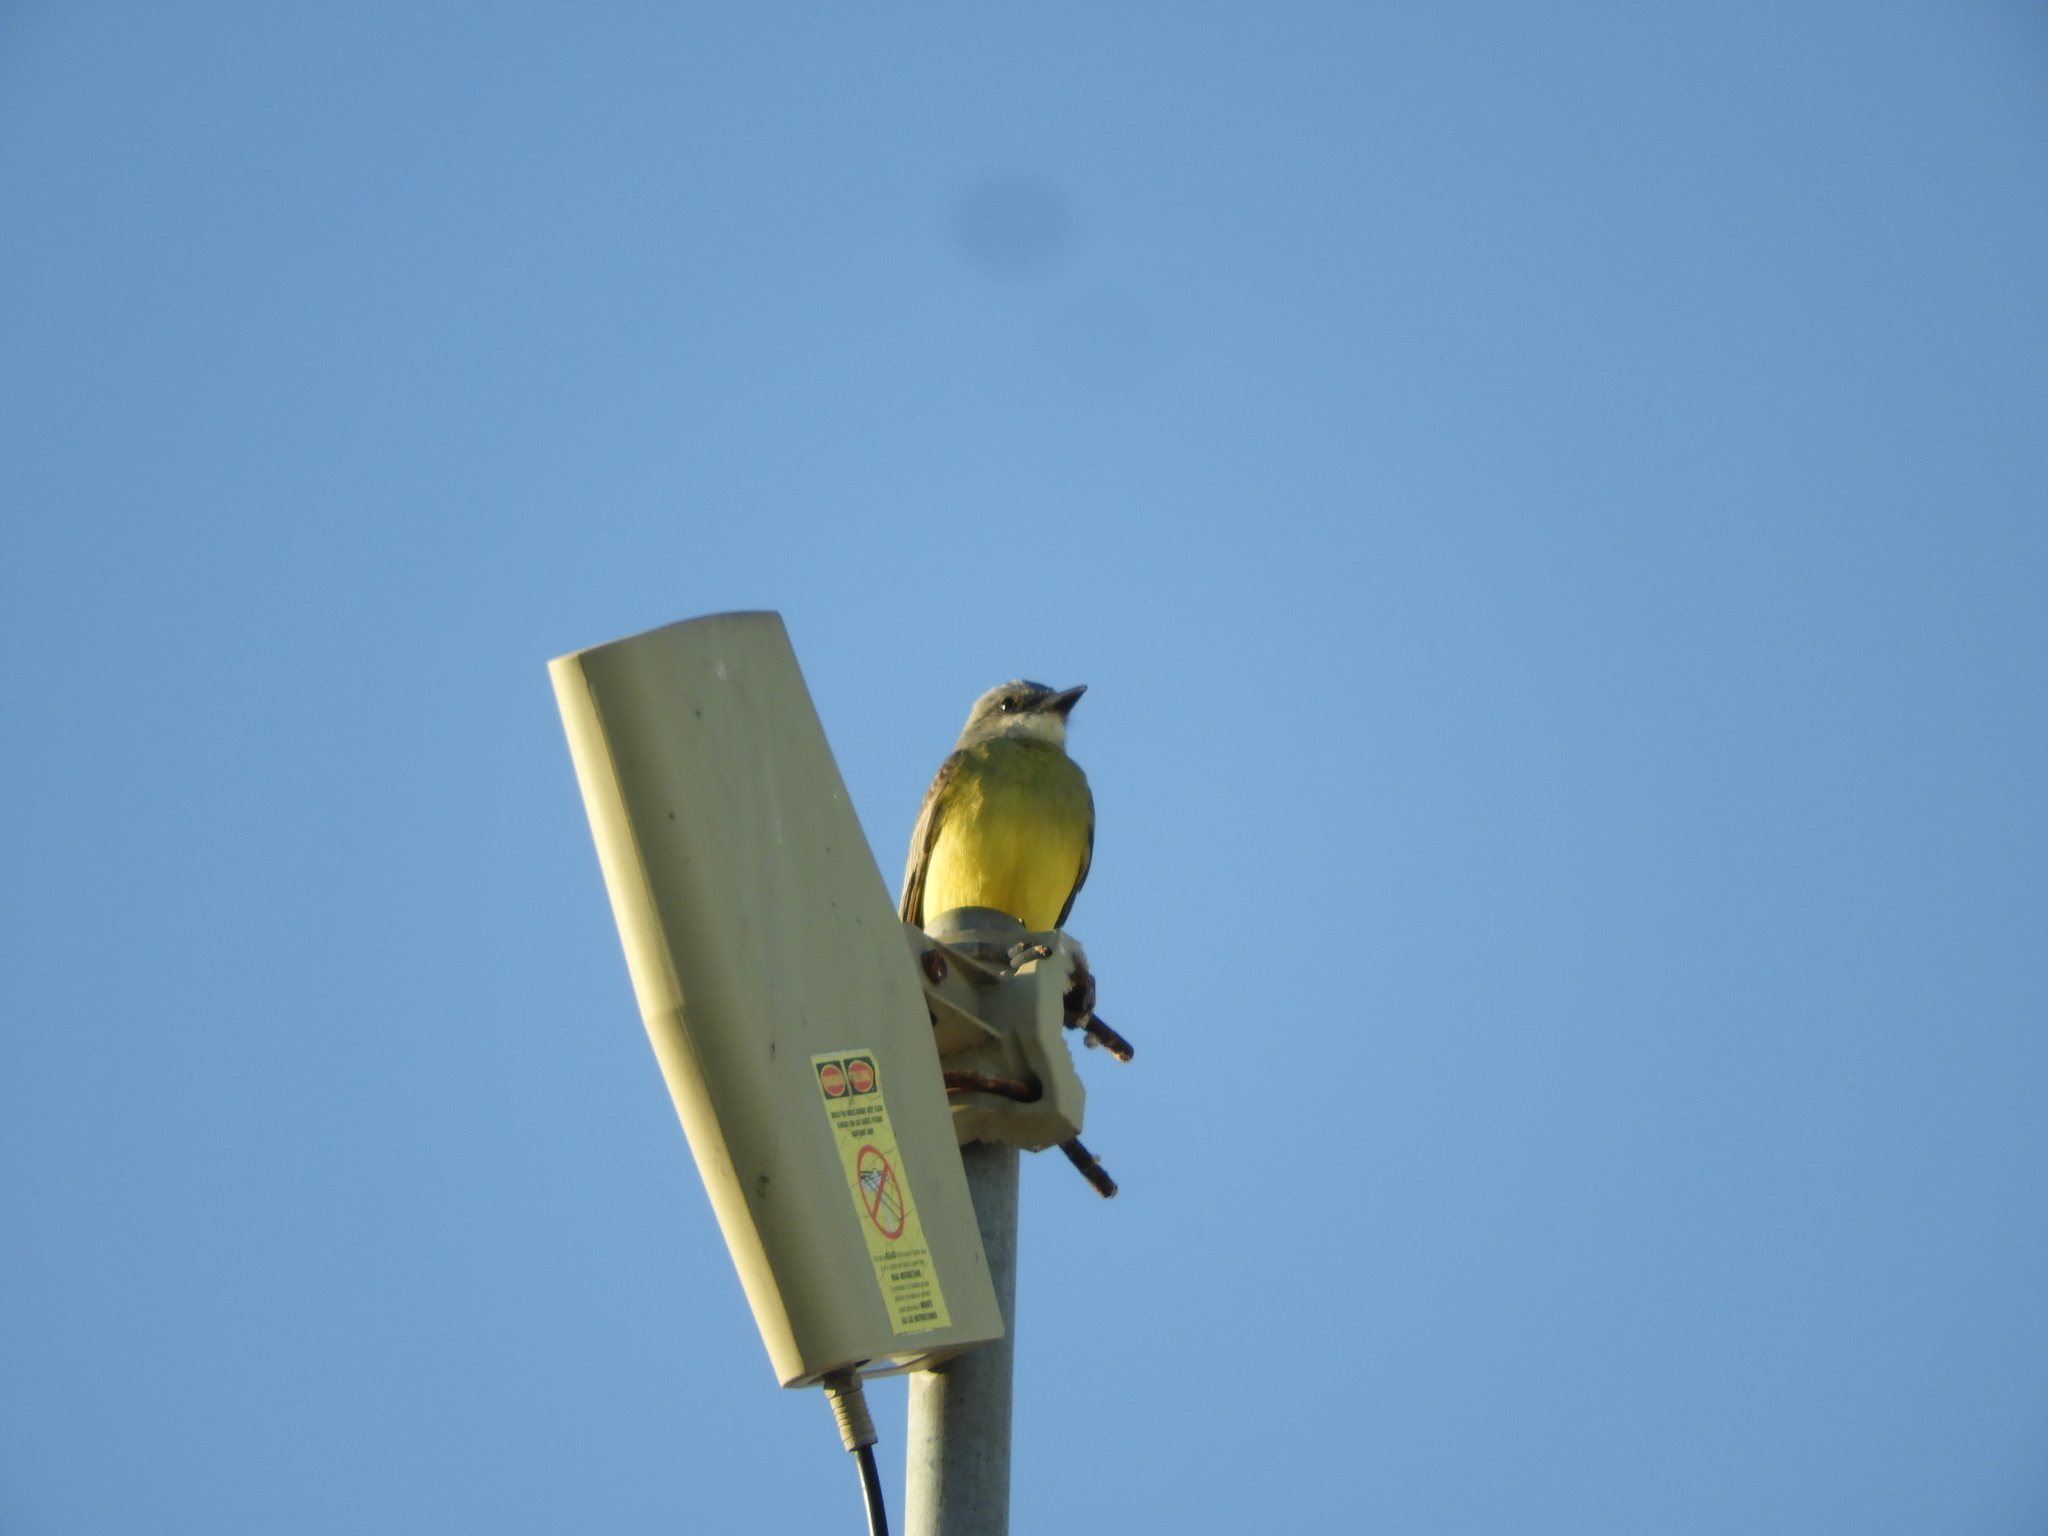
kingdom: Animalia
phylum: Chordata
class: Aves
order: Passeriformes
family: Tyrannidae
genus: Tyrannus
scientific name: Tyrannus melancholicus
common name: Tropical kingbird
